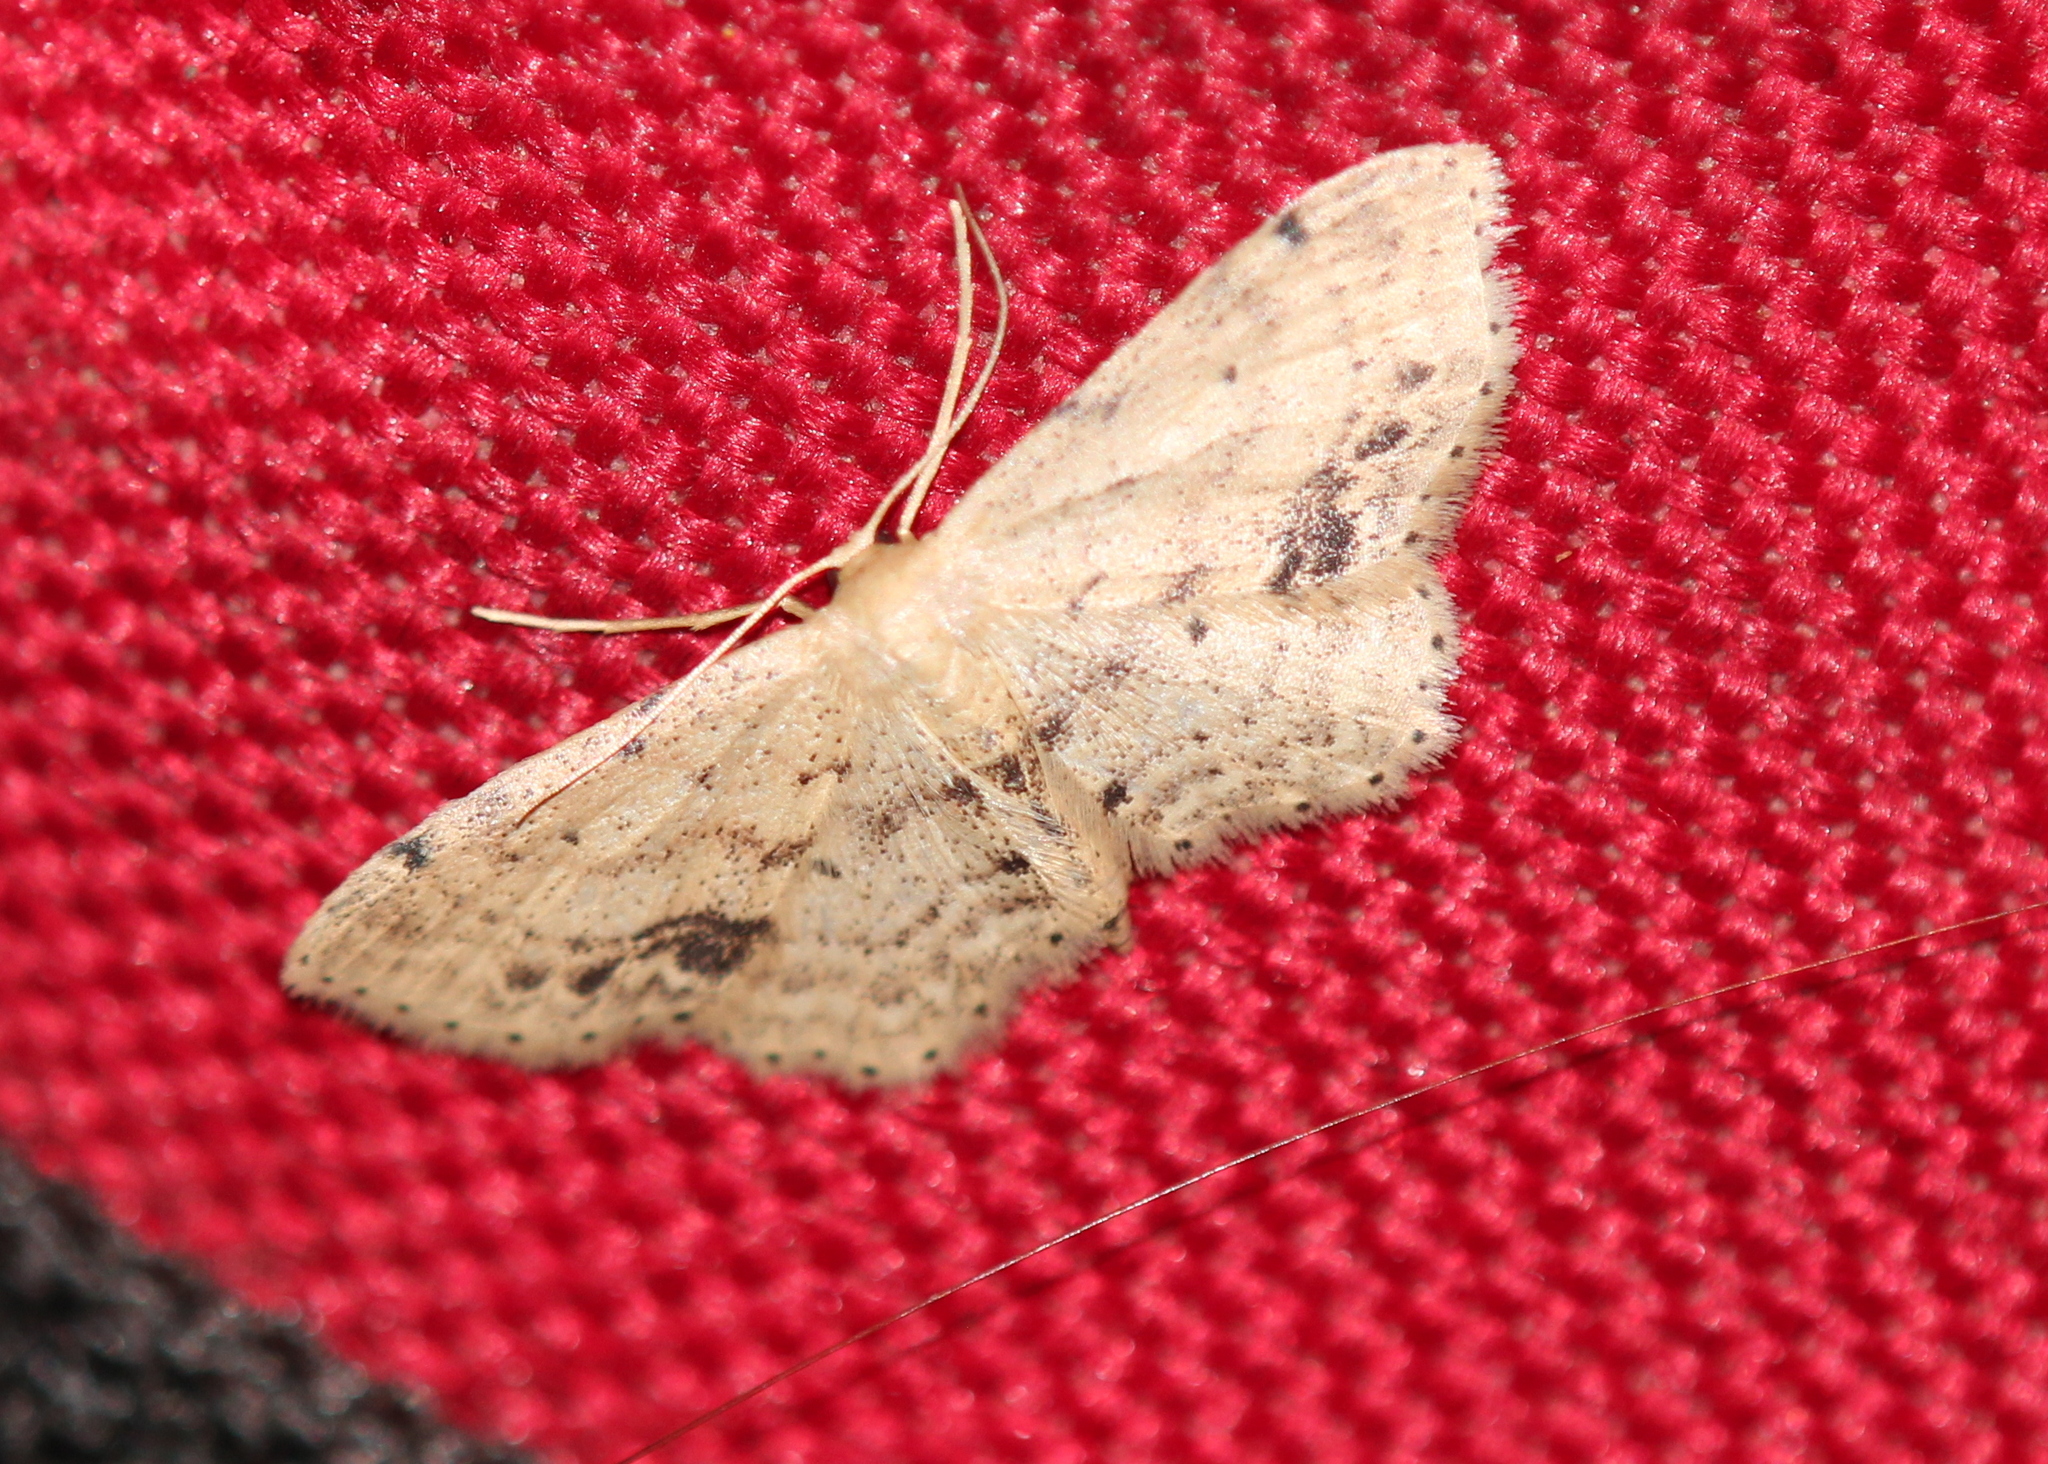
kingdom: Animalia
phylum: Arthropoda
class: Insecta
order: Lepidoptera
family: Geometridae
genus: Idaea
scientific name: Idaea dimidiata
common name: Single-dotted wave
